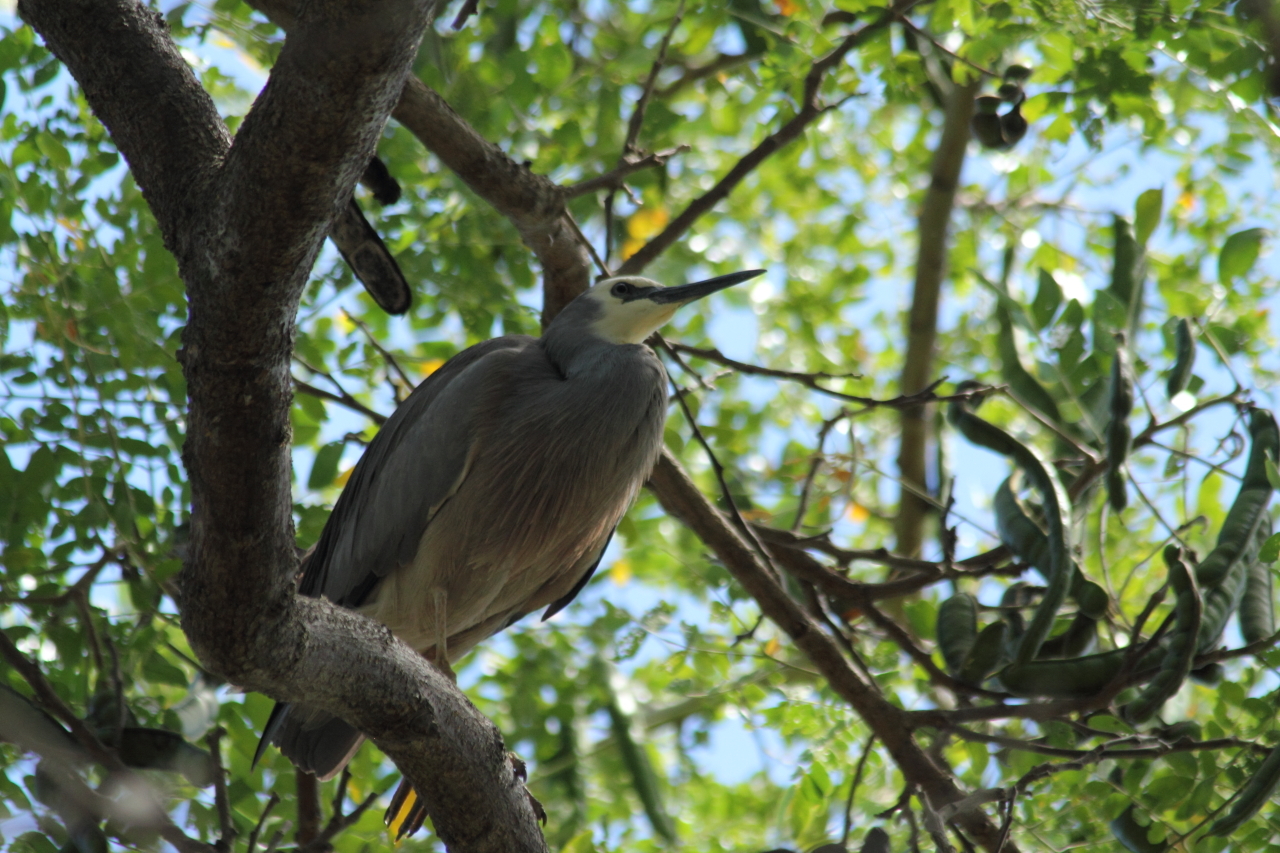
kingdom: Animalia
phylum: Chordata
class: Aves
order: Pelecaniformes
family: Ardeidae
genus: Egretta
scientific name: Egretta novaehollandiae
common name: White-faced heron
